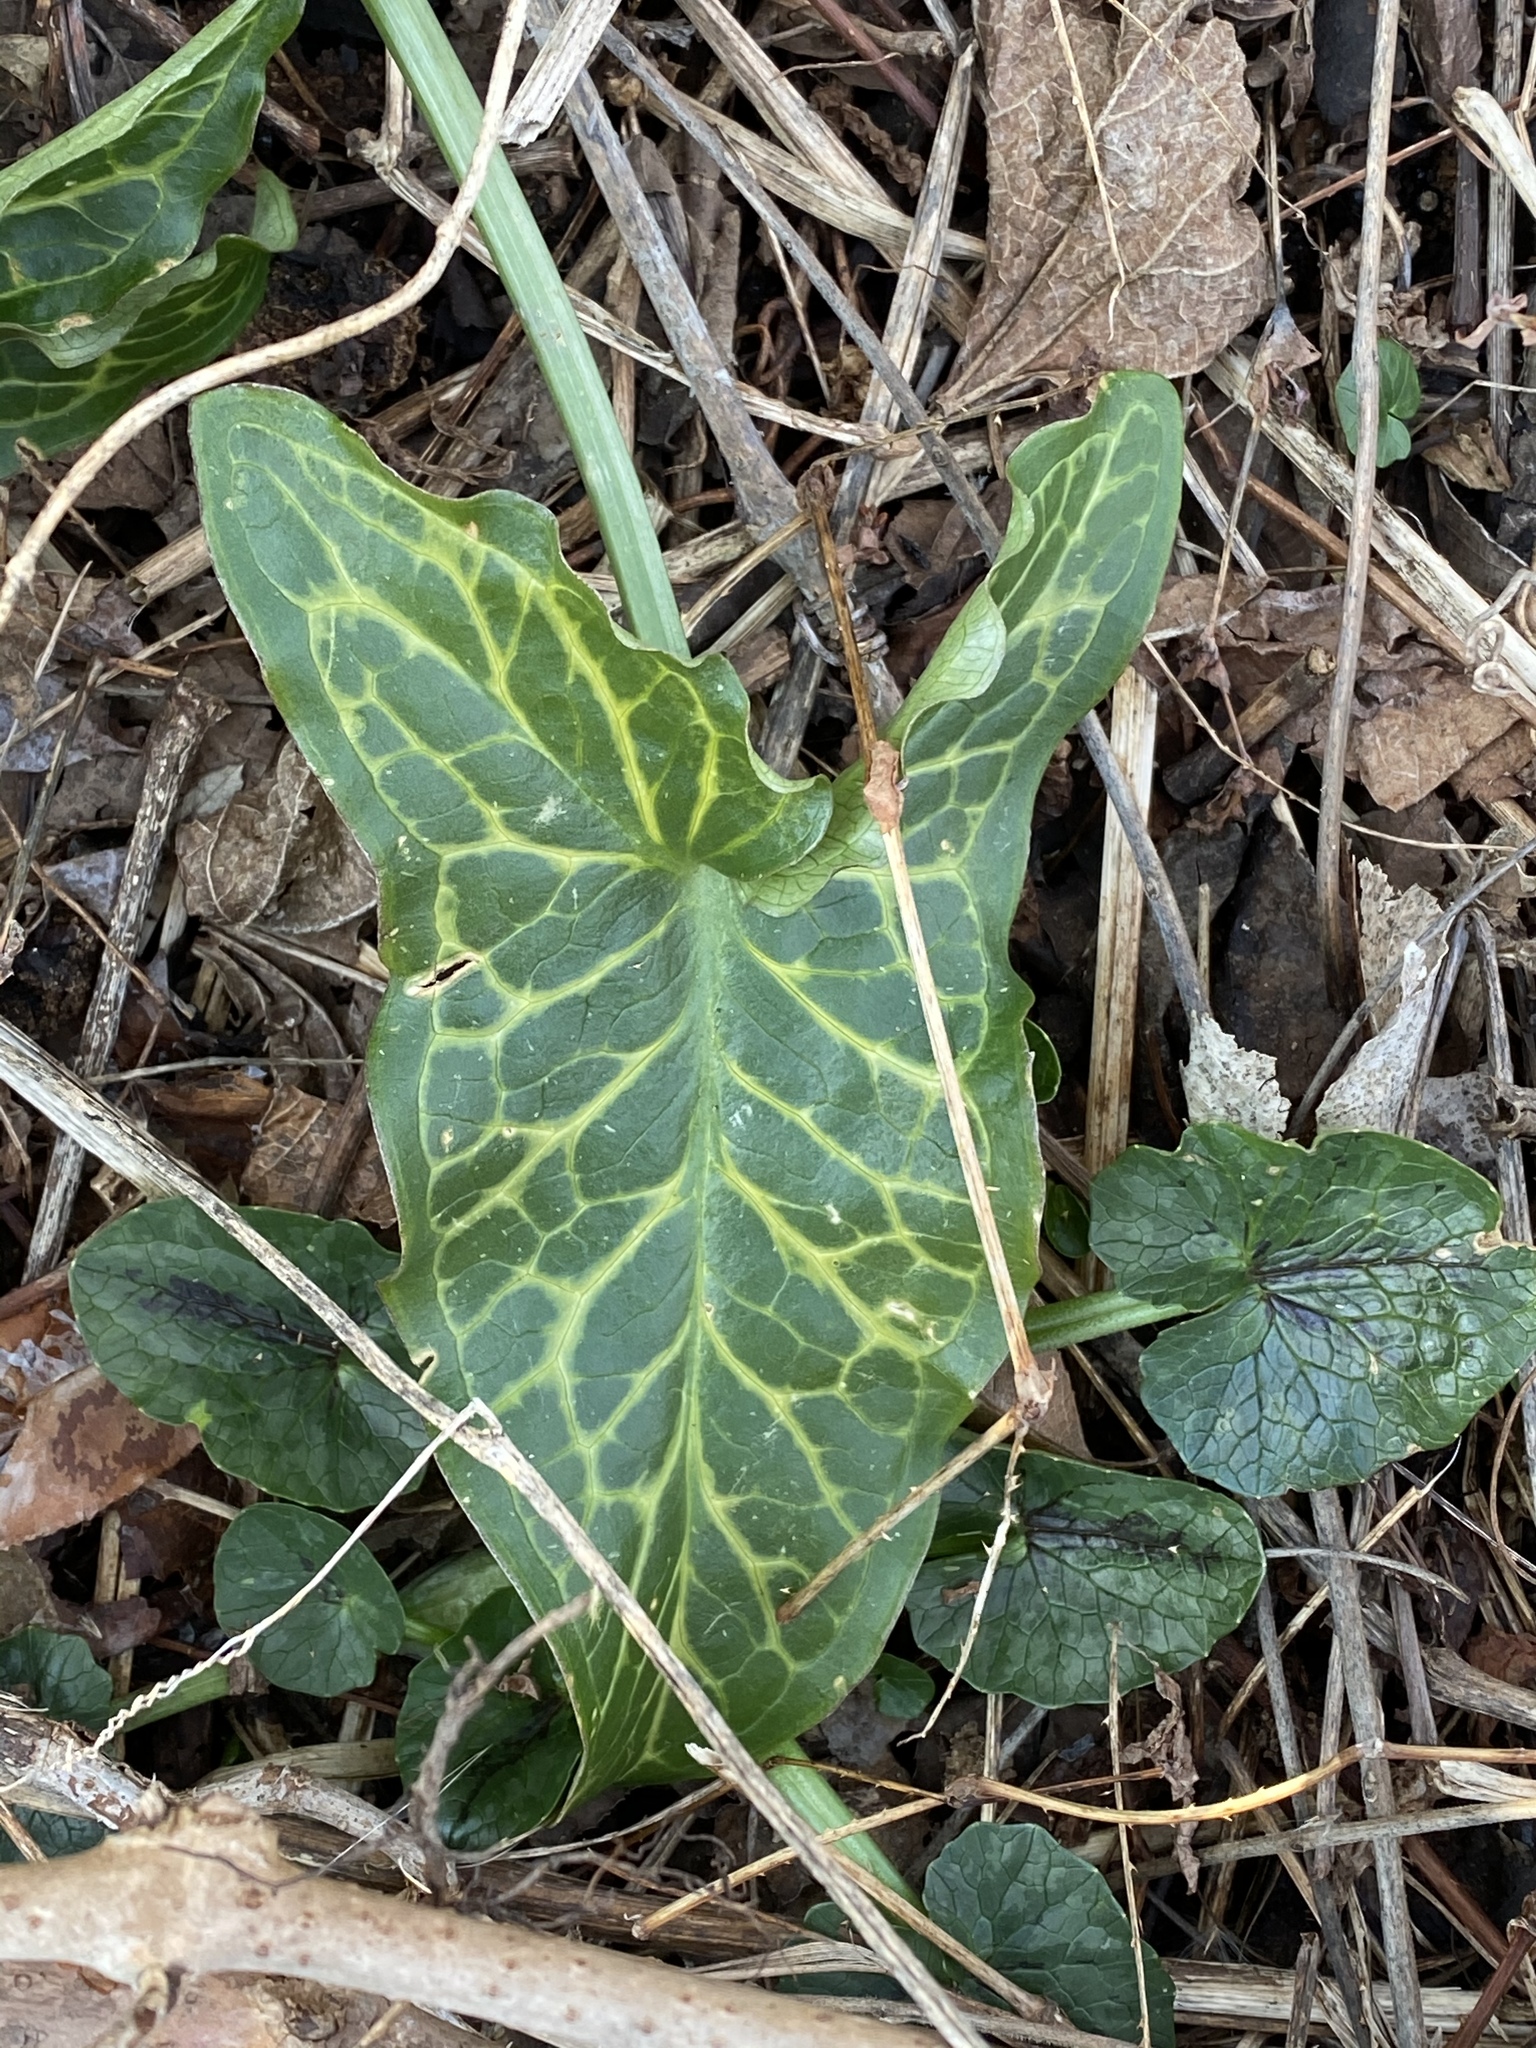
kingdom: Plantae
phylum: Tracheophyta
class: Liliopsida
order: Alismatales
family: Araceae
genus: Arum
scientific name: Arum italicum
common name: Italian lords-and-ladies
